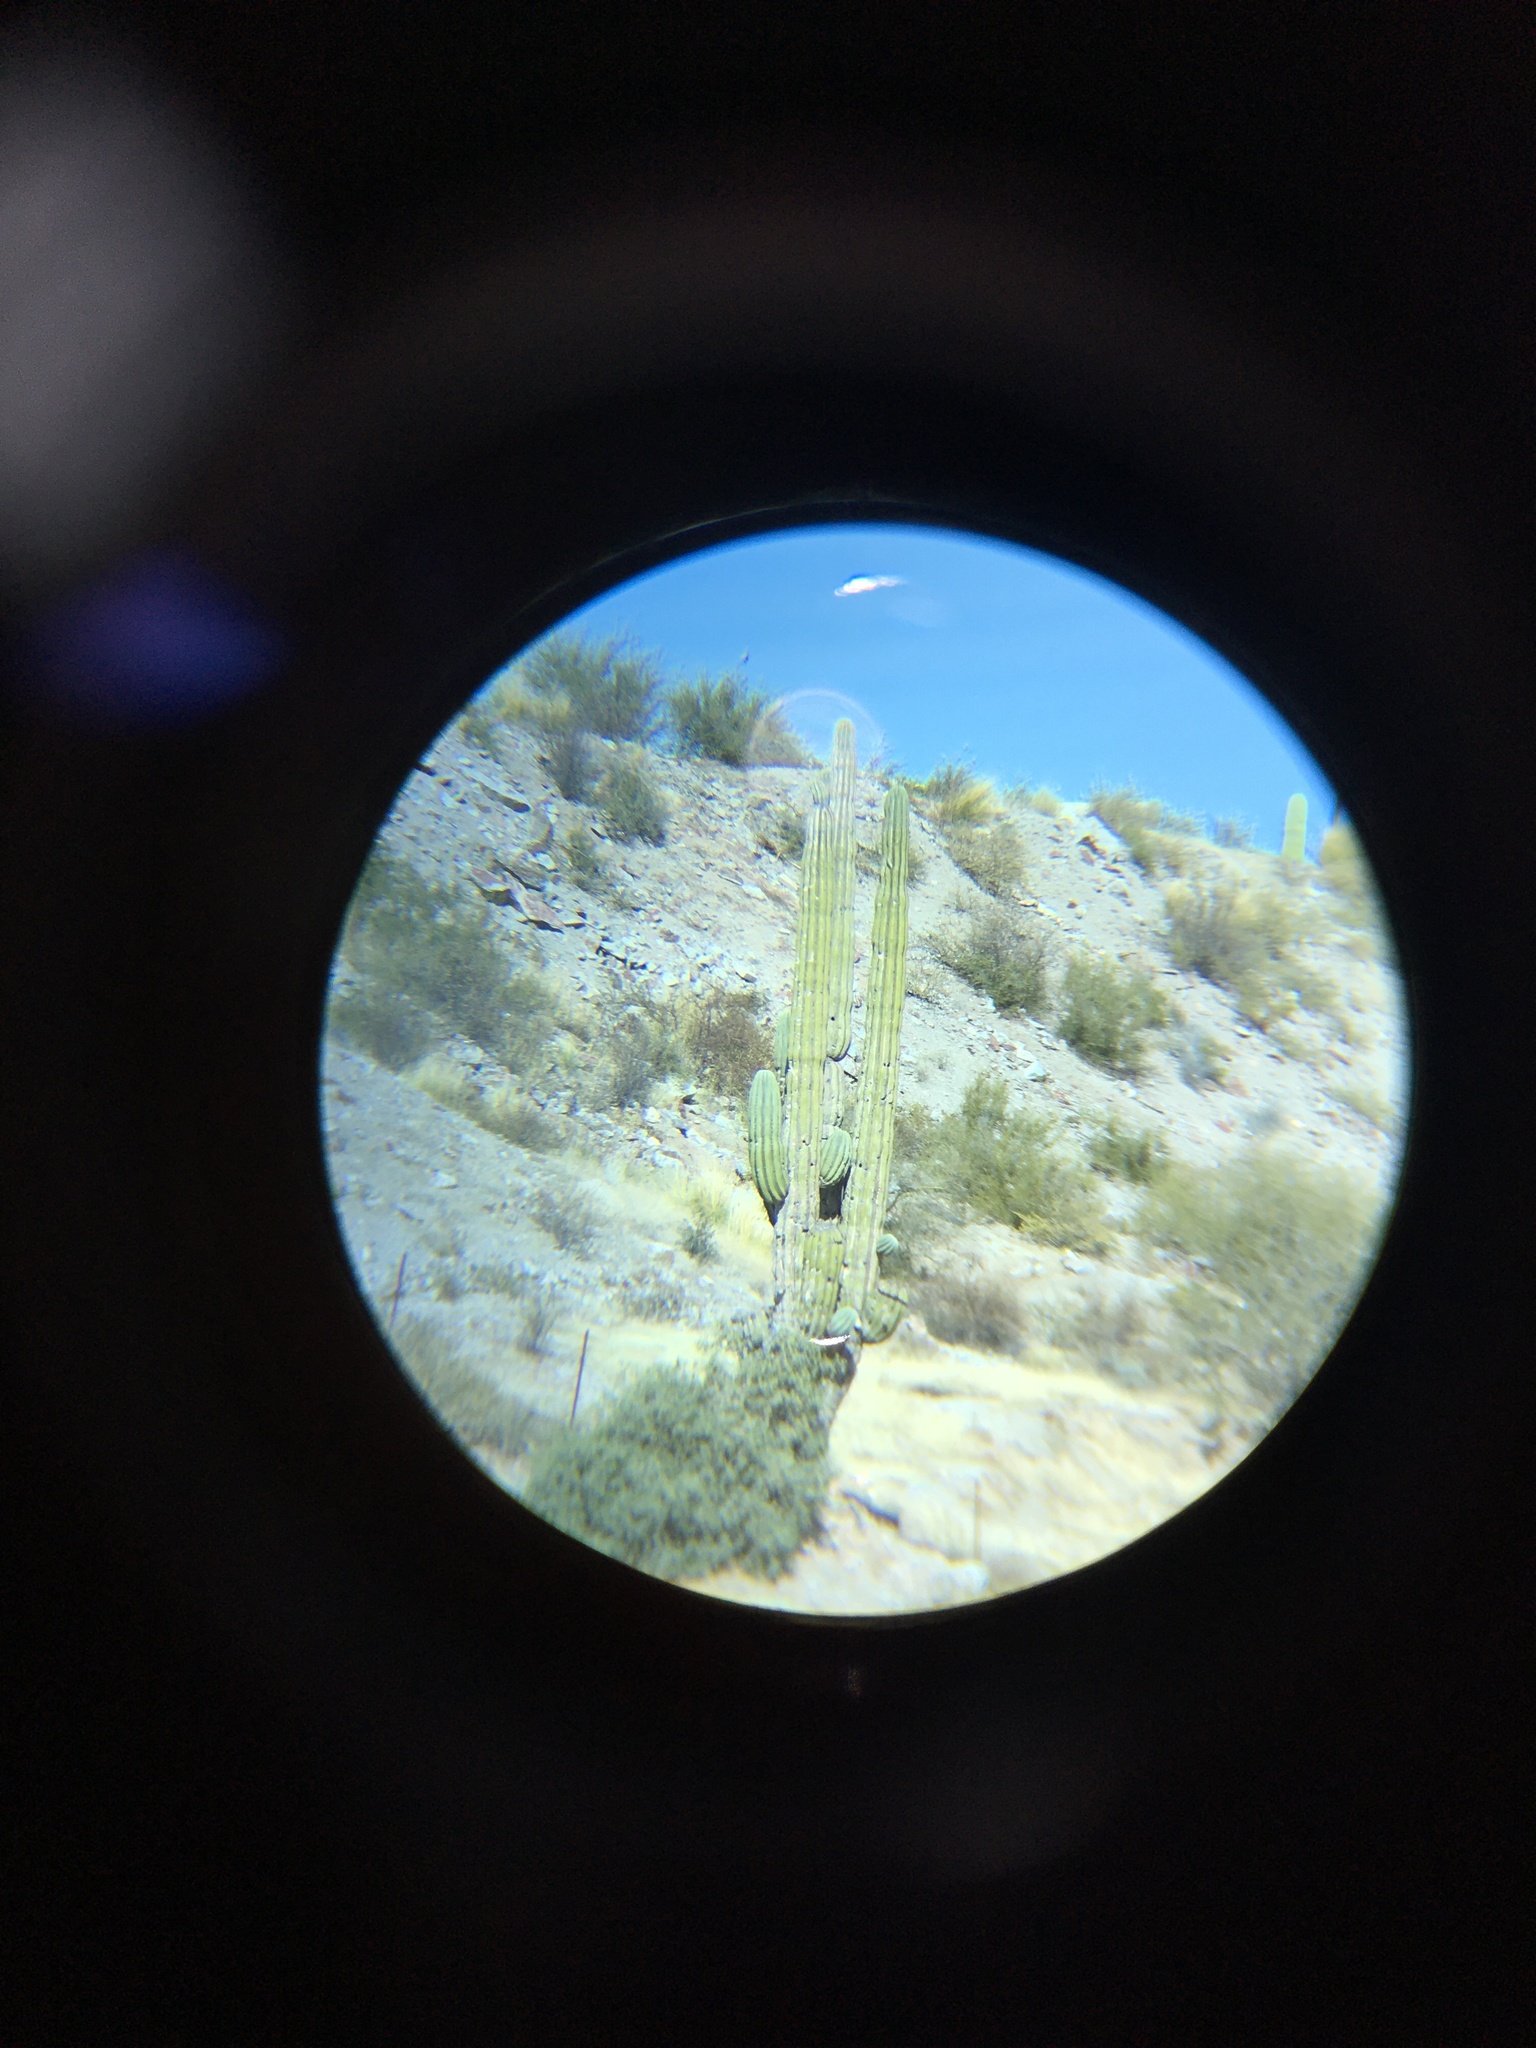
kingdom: Plantae
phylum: Tracheophyta
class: Magnoliopsida
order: Caryophyllales
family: Cactaceae
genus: Carnegiea
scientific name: Carnegiea gigantea
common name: Saguaro
